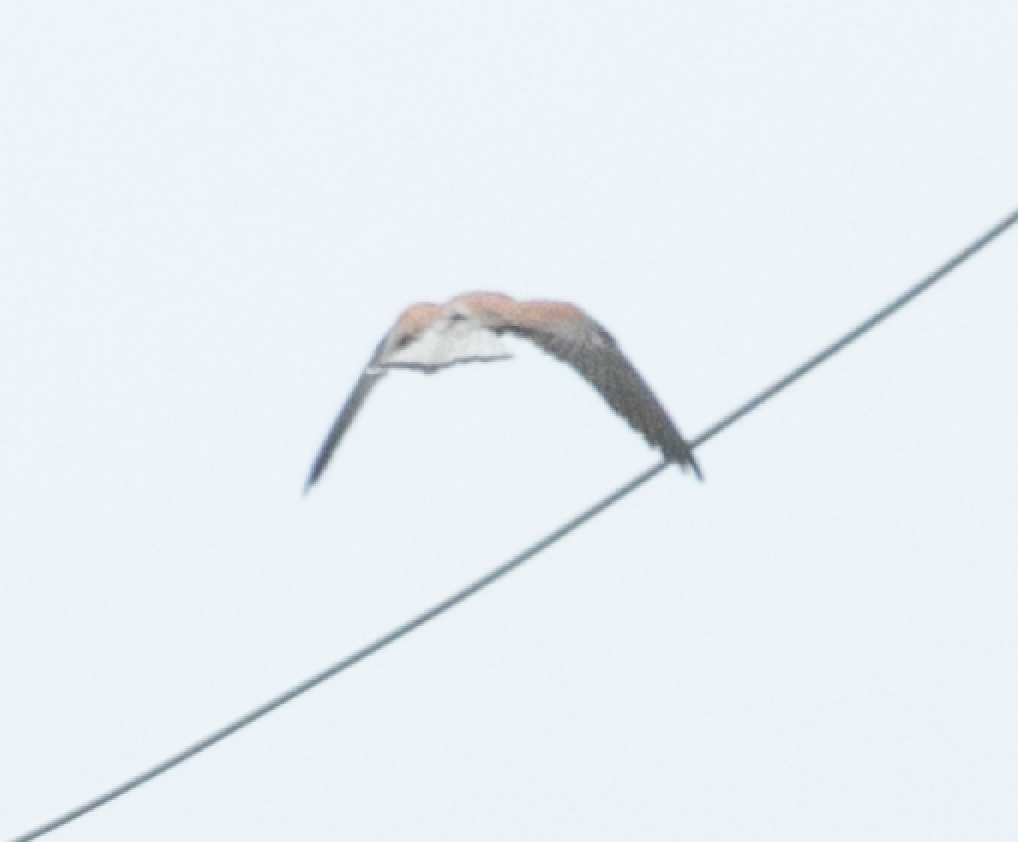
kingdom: Animalia
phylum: Chordata
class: Aves
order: Falconiformes
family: Falconidae
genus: Falco
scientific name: Falco naumanni
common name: Lesser kestrel
